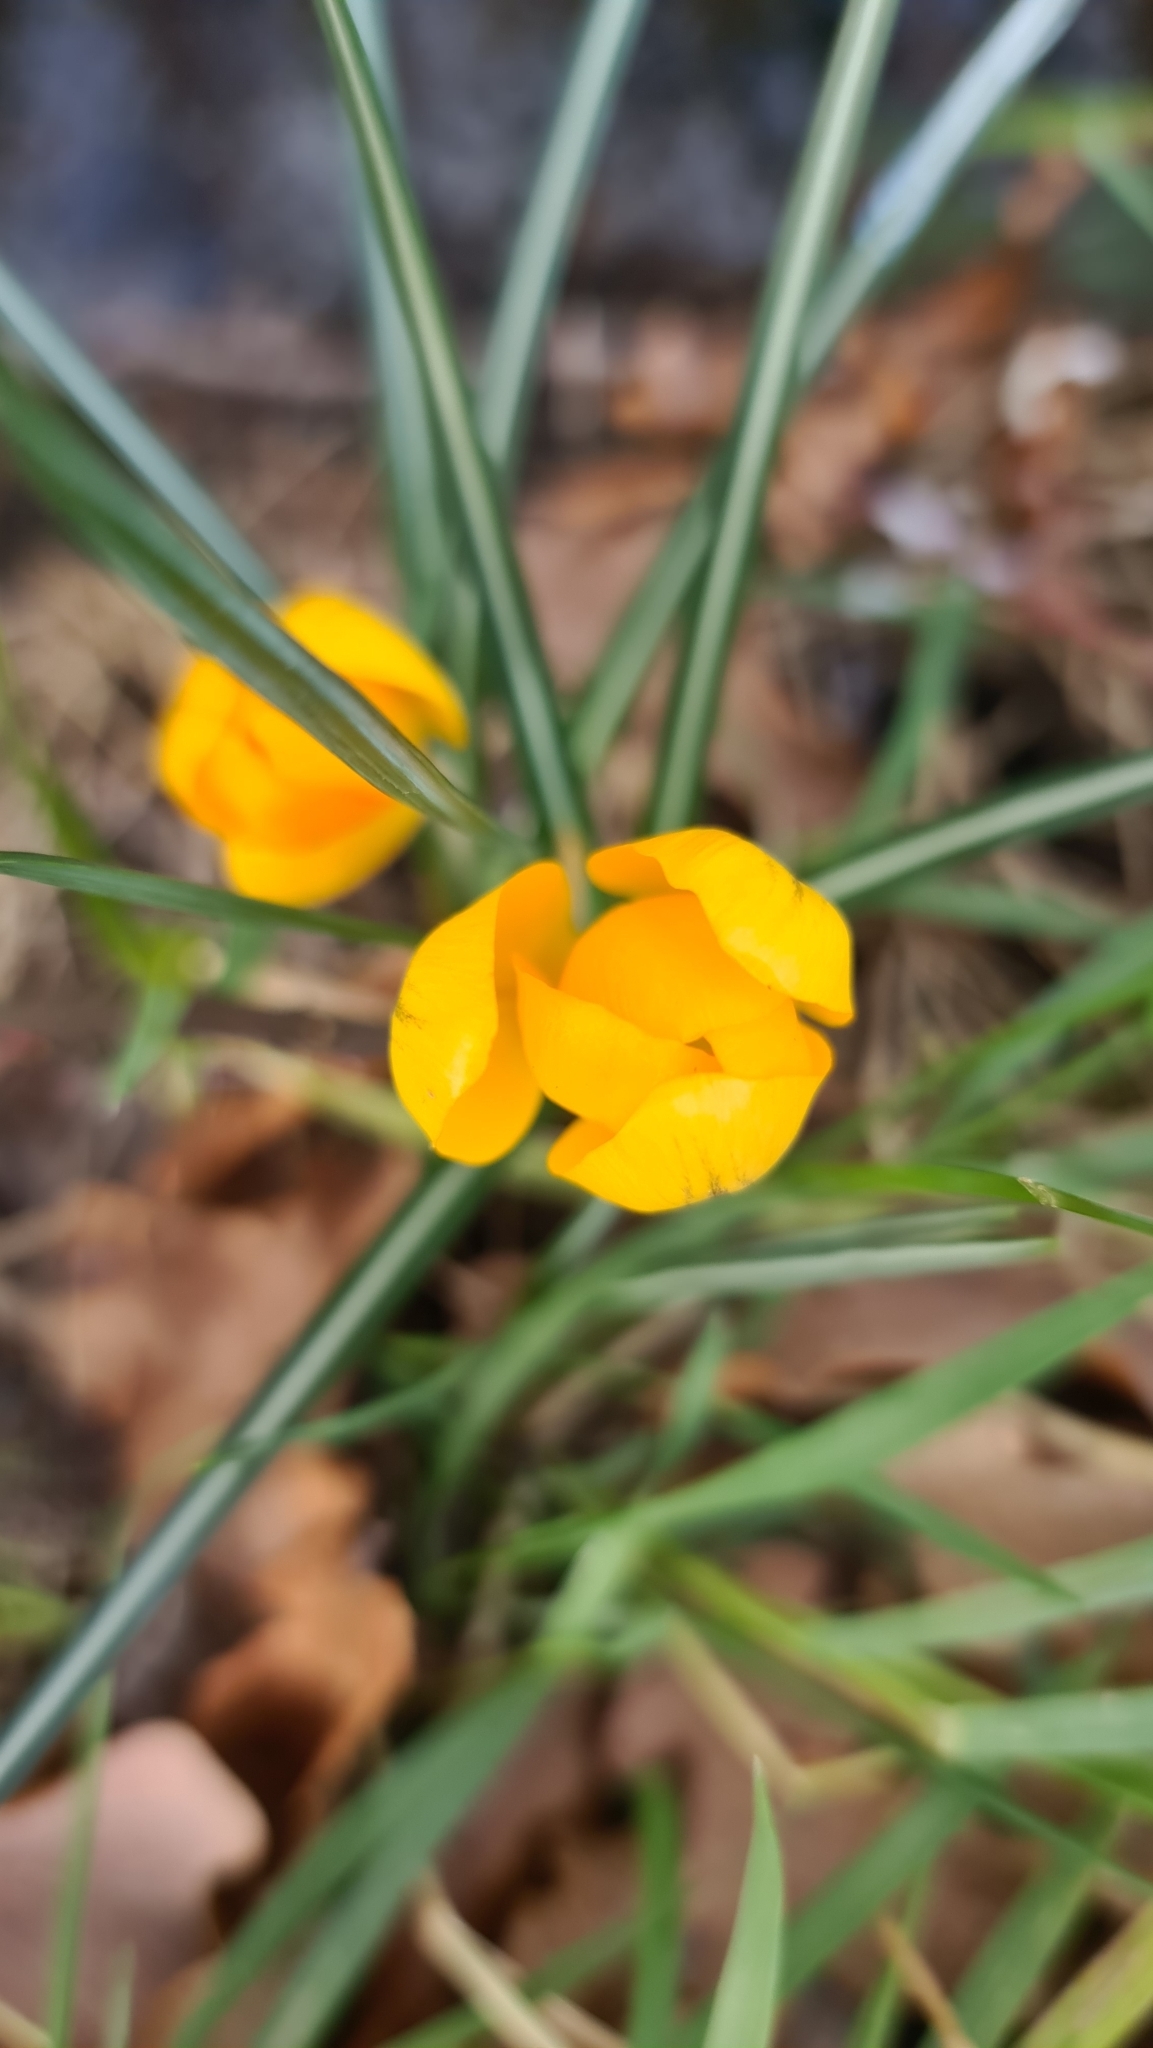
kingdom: Plantae
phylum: Tracheophyta
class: Liliopsida
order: Asparagales
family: Iridaceae
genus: Crocus
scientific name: Crocus luteus
